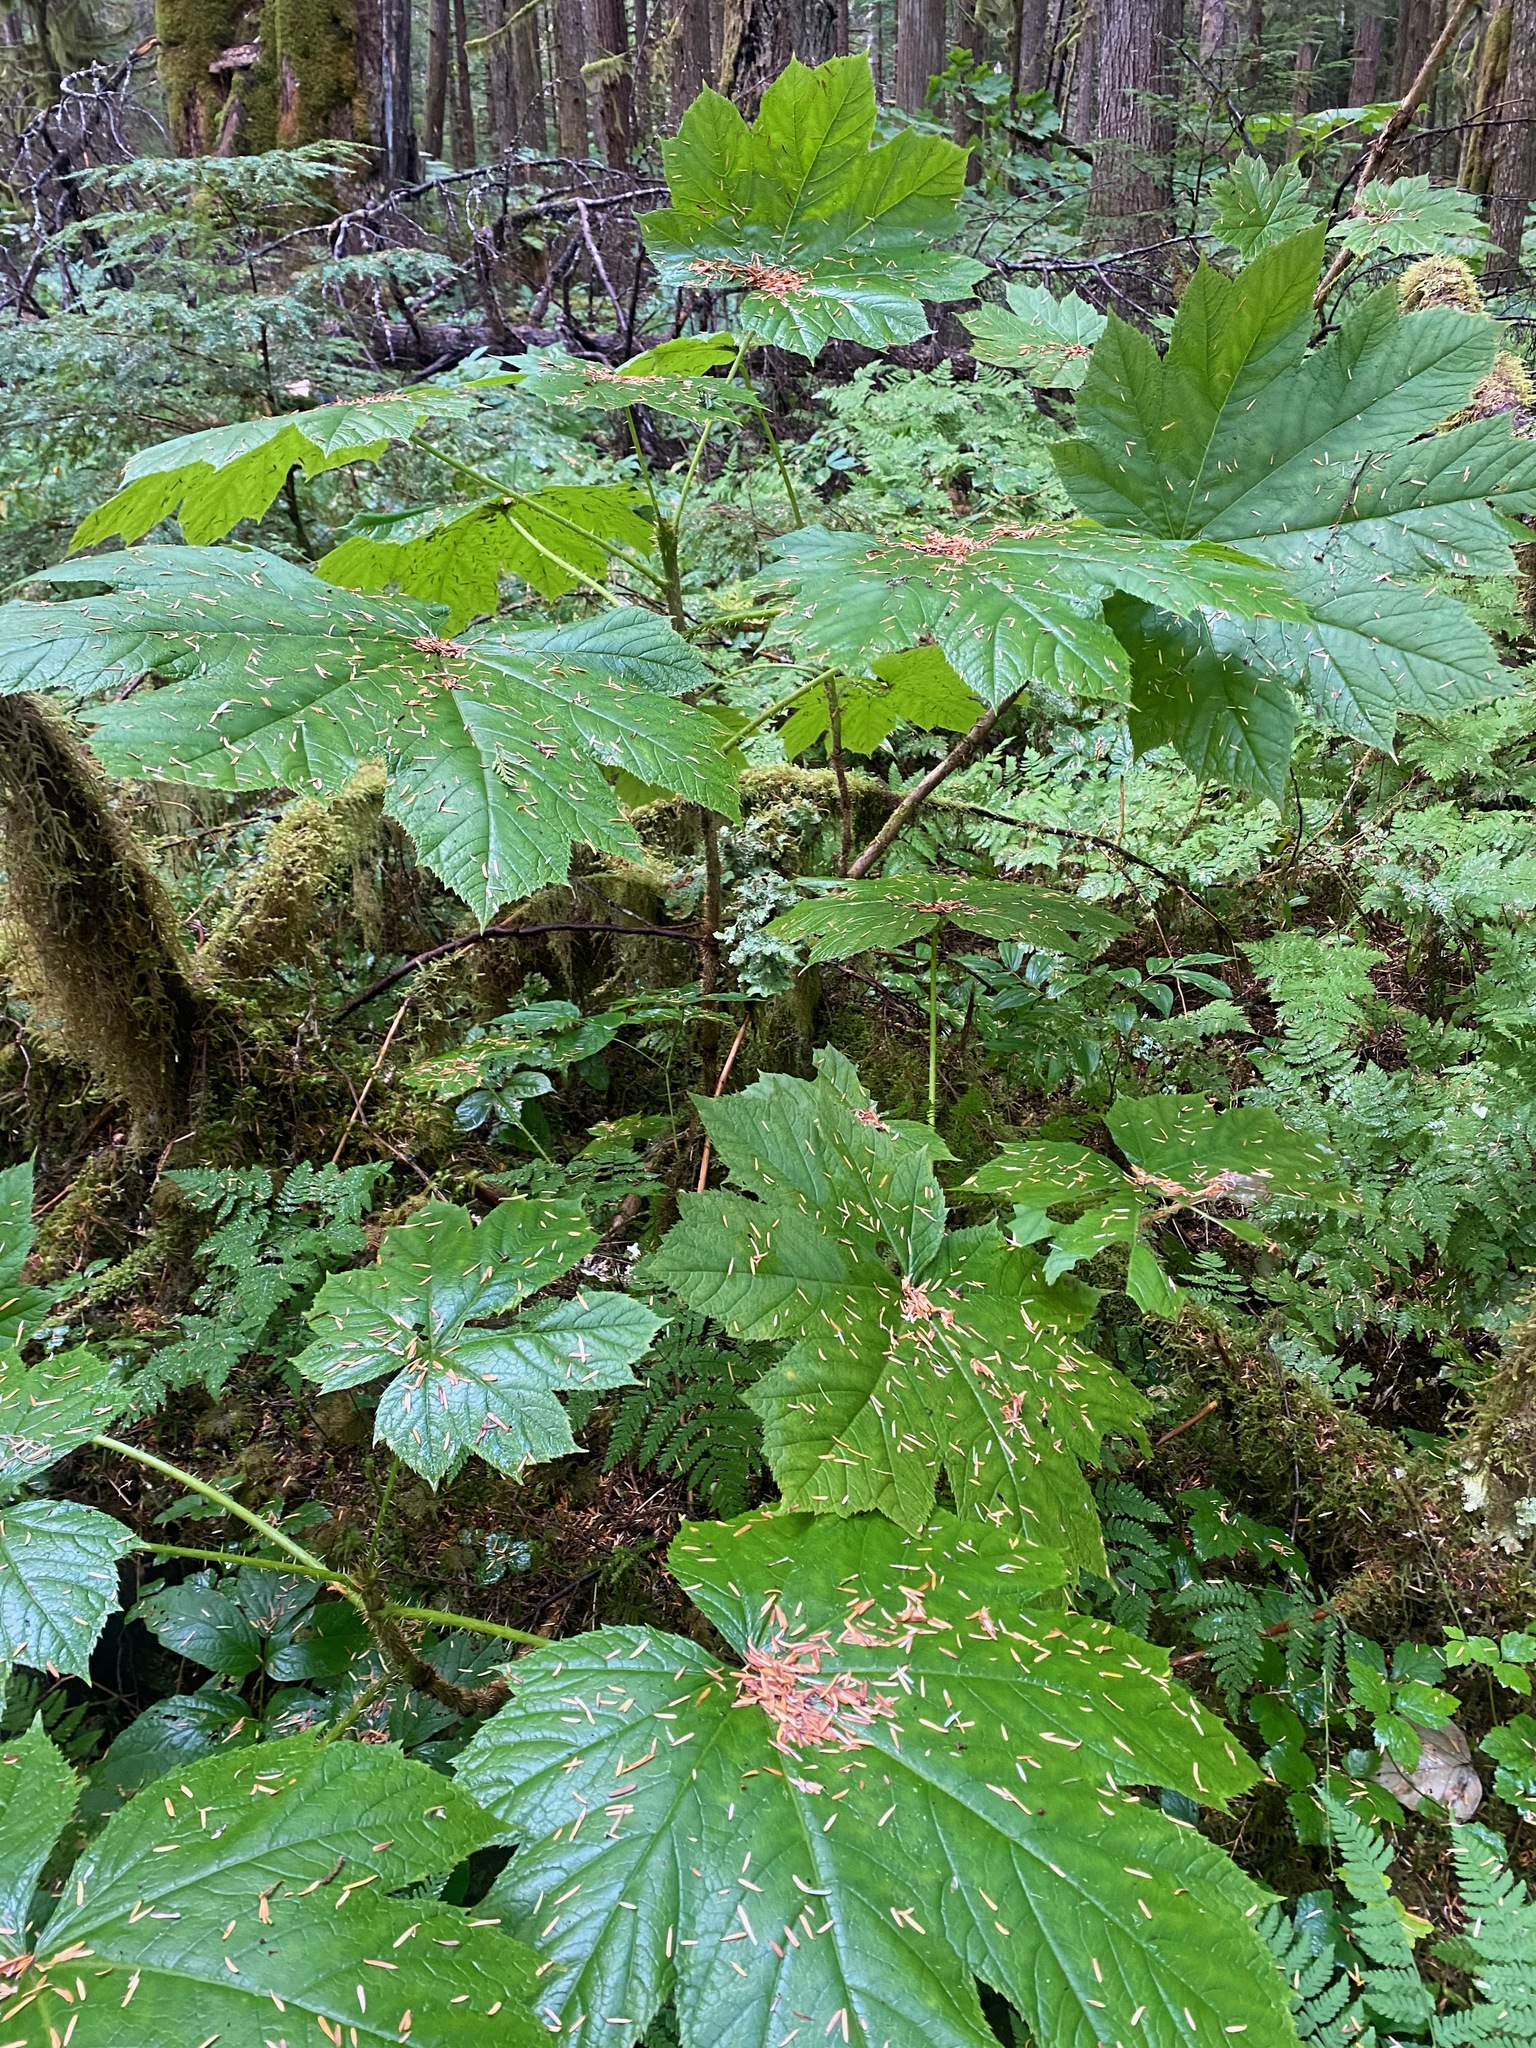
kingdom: Plantae
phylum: Tracheophyta
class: Magnoliopsida
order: Apiales
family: Araliaceae
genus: Oplopanax
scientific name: Oplopanax horridus
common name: Devil's walking-stick
